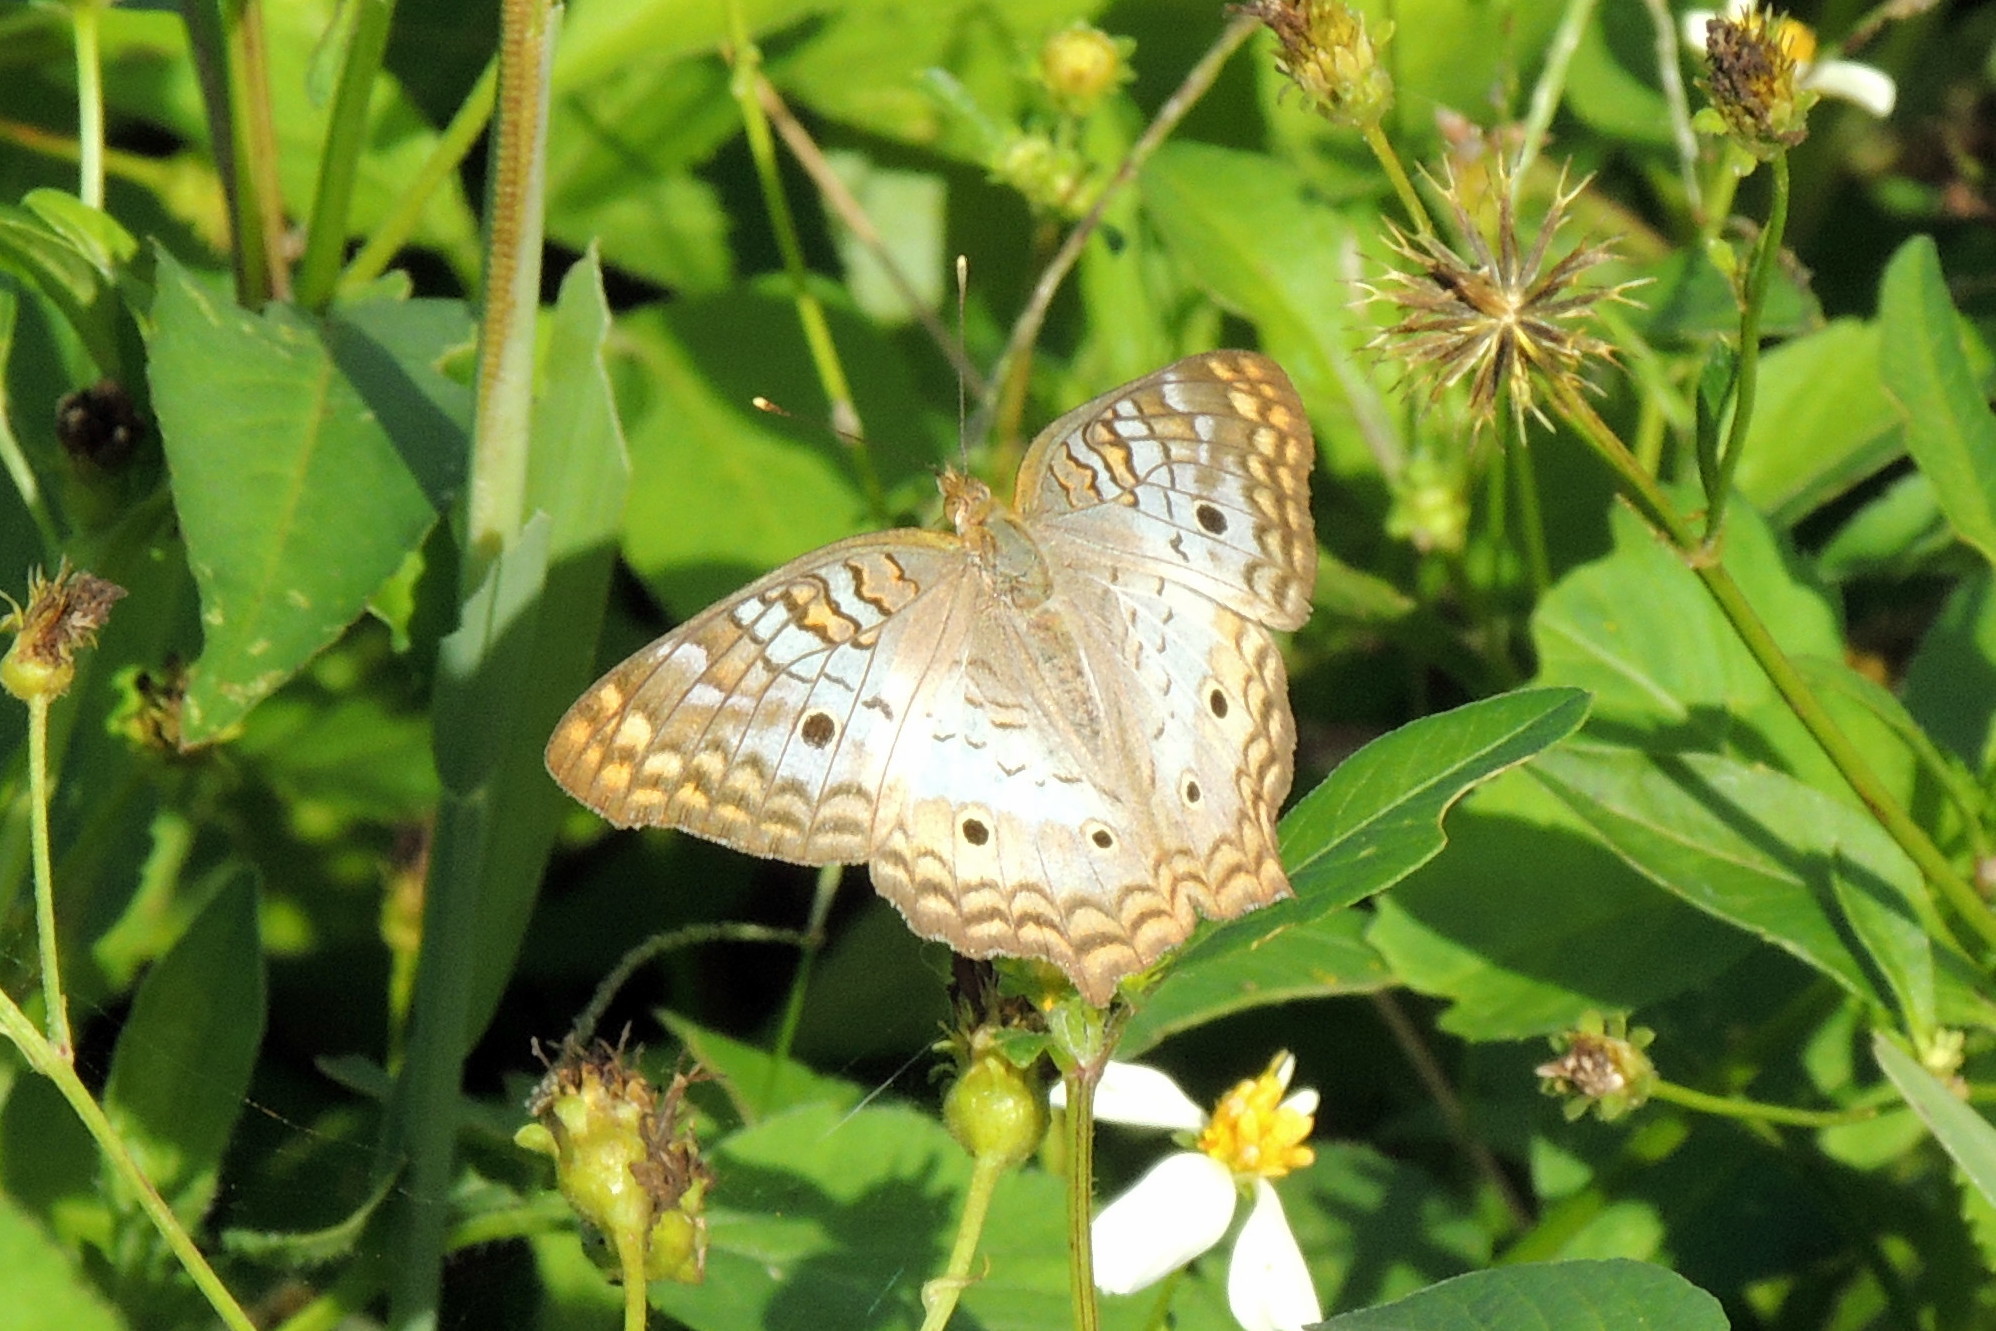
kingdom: Animalia
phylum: Arthropoda
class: Insecta
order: Lepidoptera
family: Nymphalidae
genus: Anartia
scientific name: Anartia jatrophae
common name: White peacock
